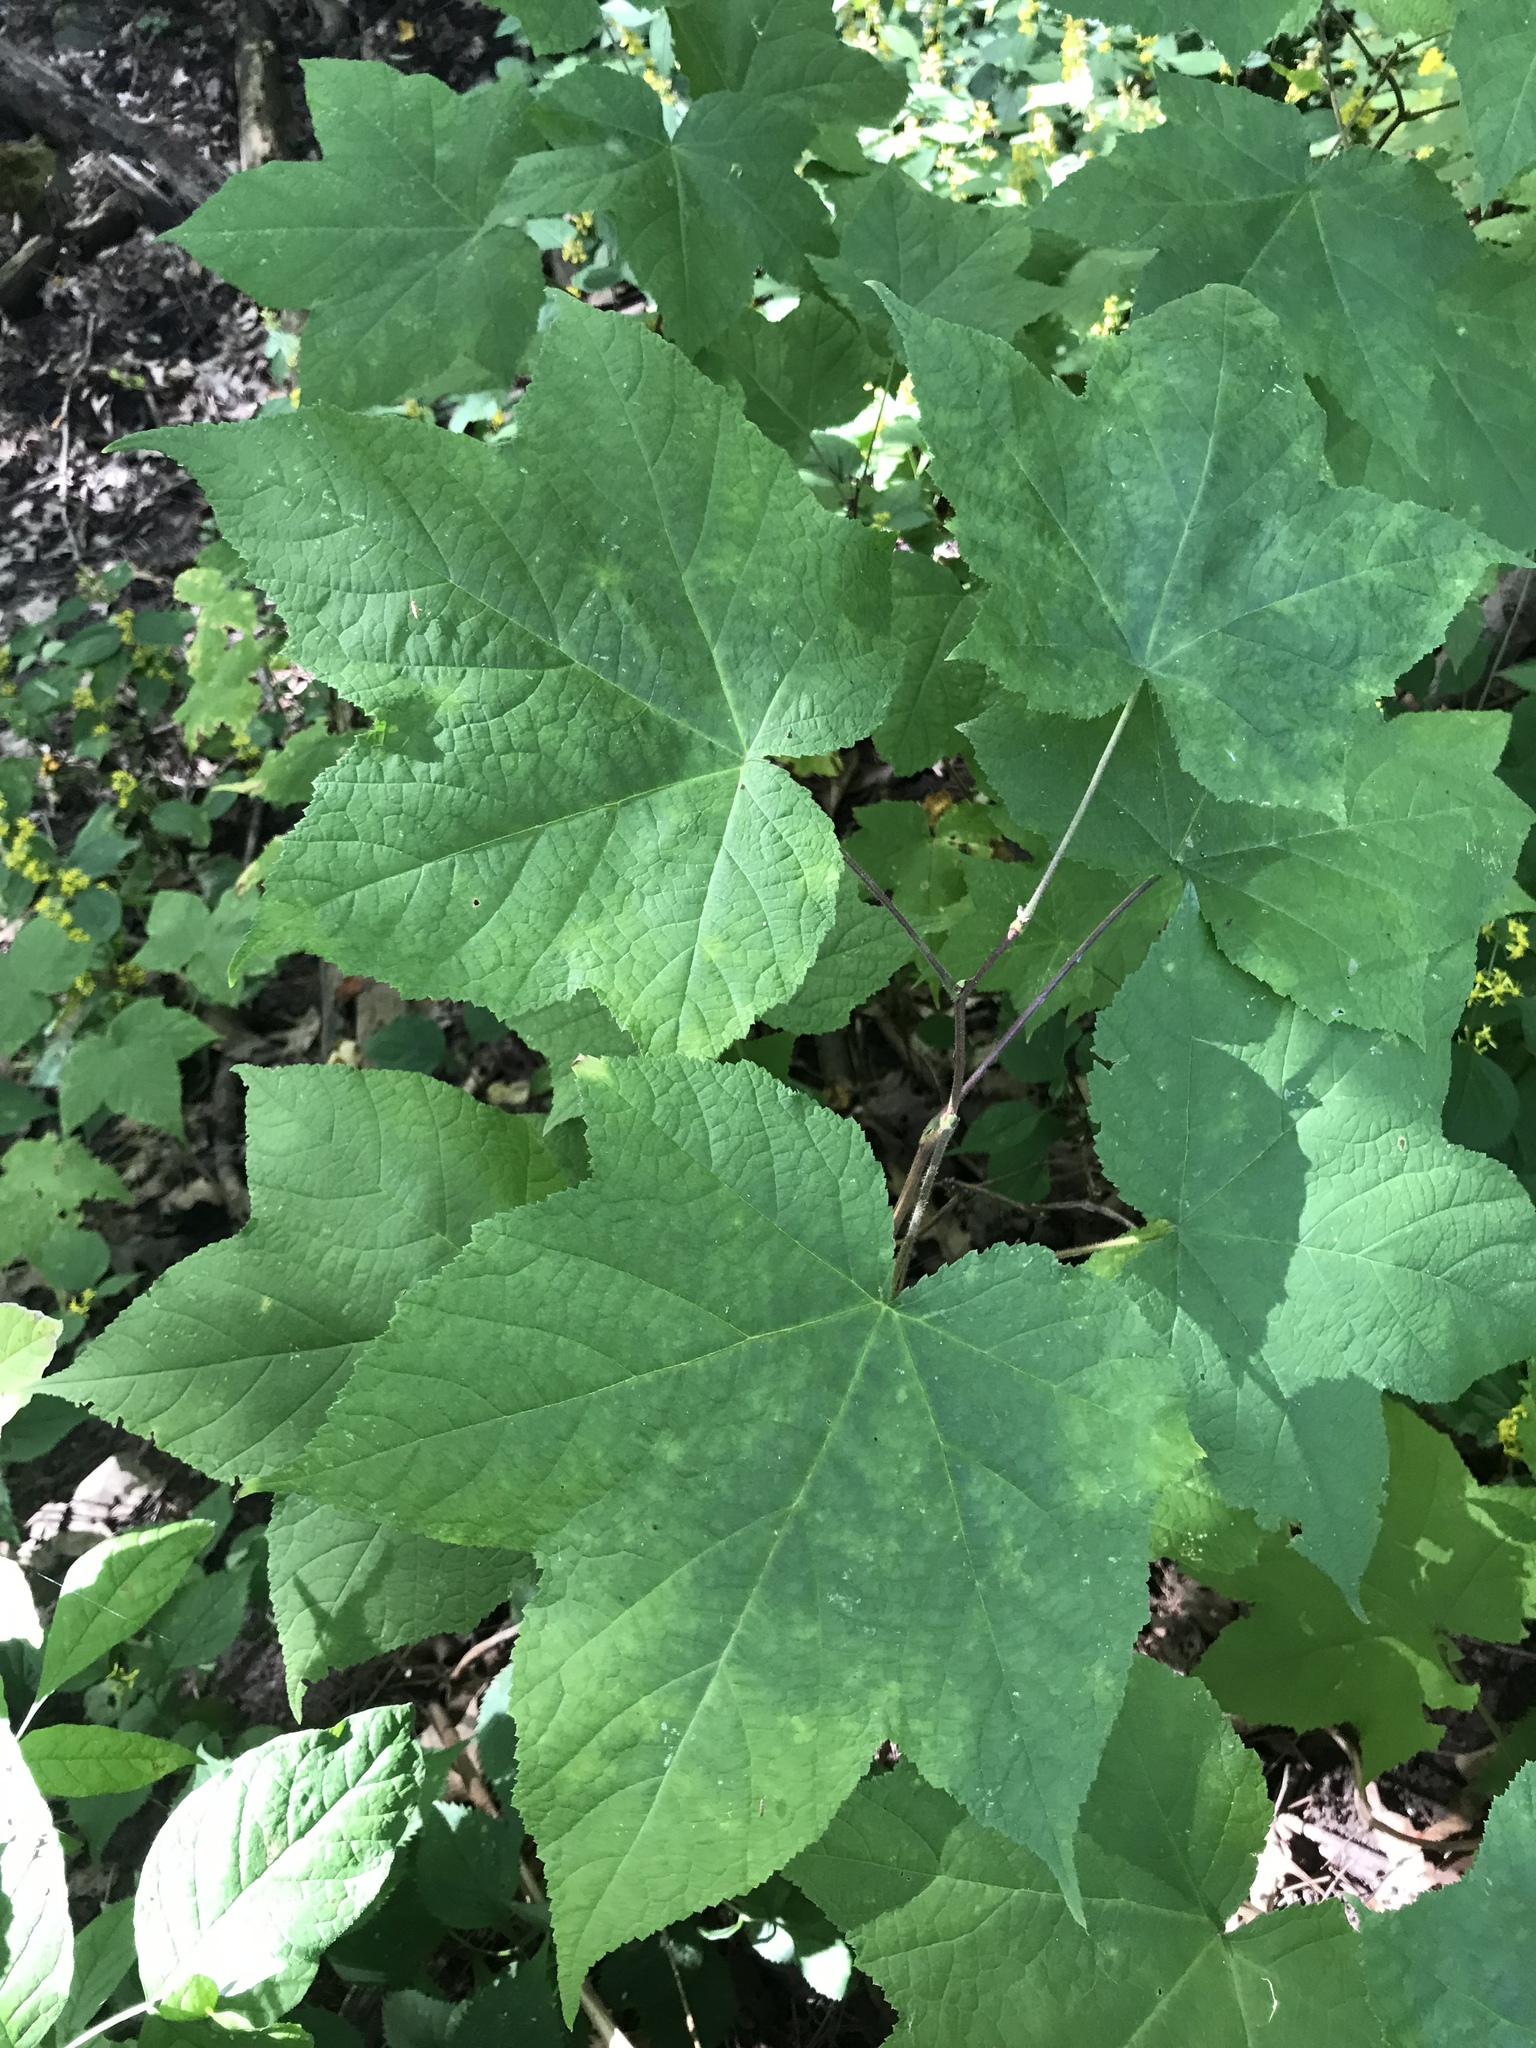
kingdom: Plantae
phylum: Tracheophyta
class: Magnoliopsida
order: Rosales
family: Rosaceae
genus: Rubus
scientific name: Rubus odoratus
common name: Purple-flowered raspberry
